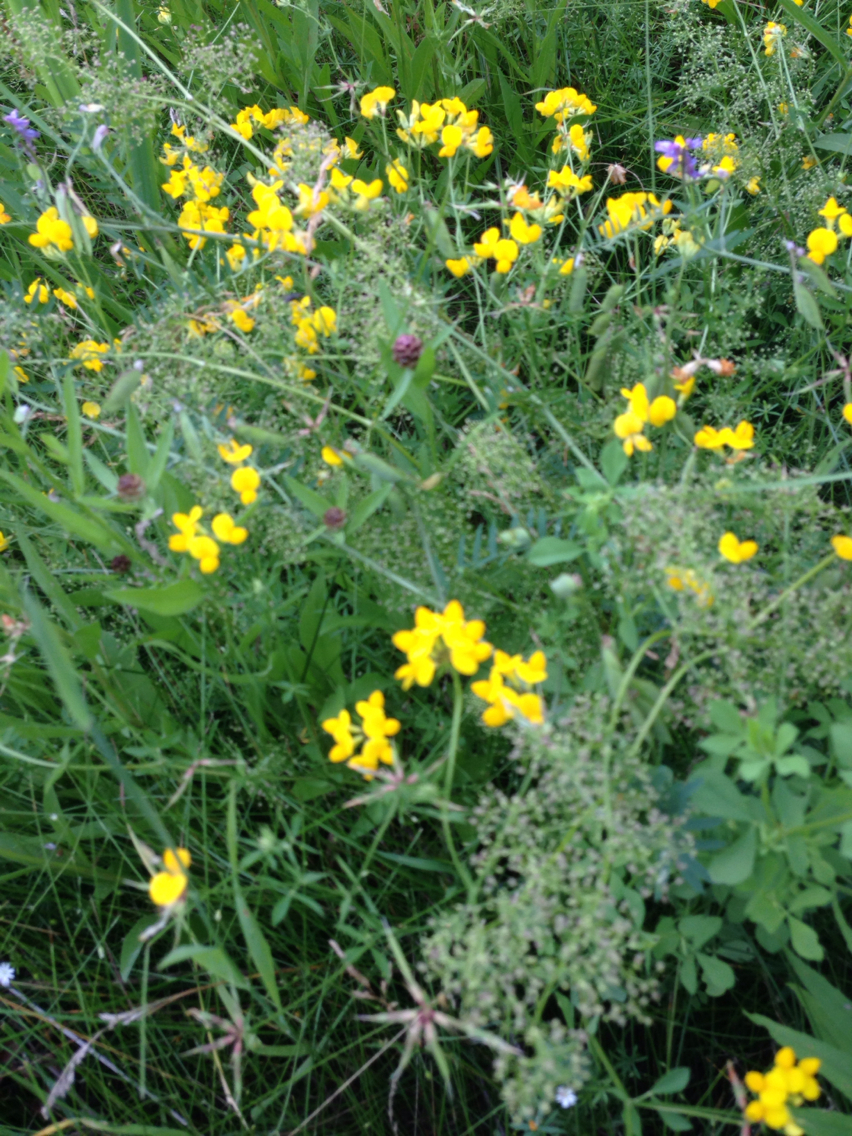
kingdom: Plantae
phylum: Tracheophyta
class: Magnoliopsida
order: Fabales
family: Fabaceae
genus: Lotus
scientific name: Lotus corniculatus
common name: Common bird's-foot-trefoil
